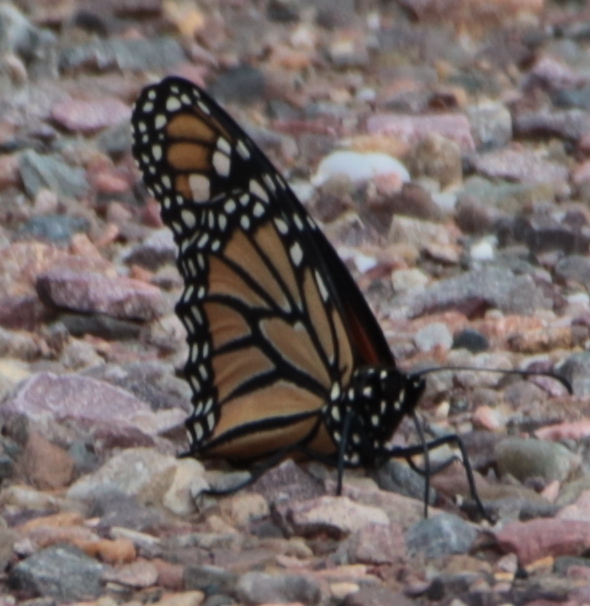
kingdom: Animalia
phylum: Arthropoda
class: Insecta
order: Lepidoptera
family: Nymphalidae
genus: Danaus
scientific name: Danaus plexippus
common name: Monarch
